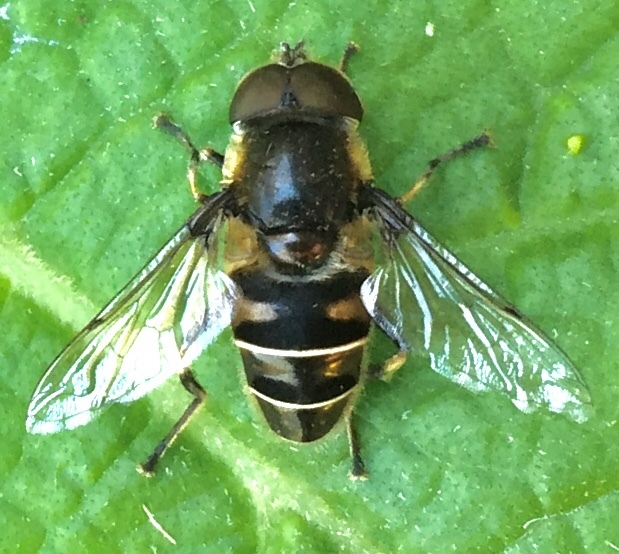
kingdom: Animalia
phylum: Arthropoda
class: Insecta
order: Diptera
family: Syrphidae
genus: Eristalis
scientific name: Eristalis dimidiata
